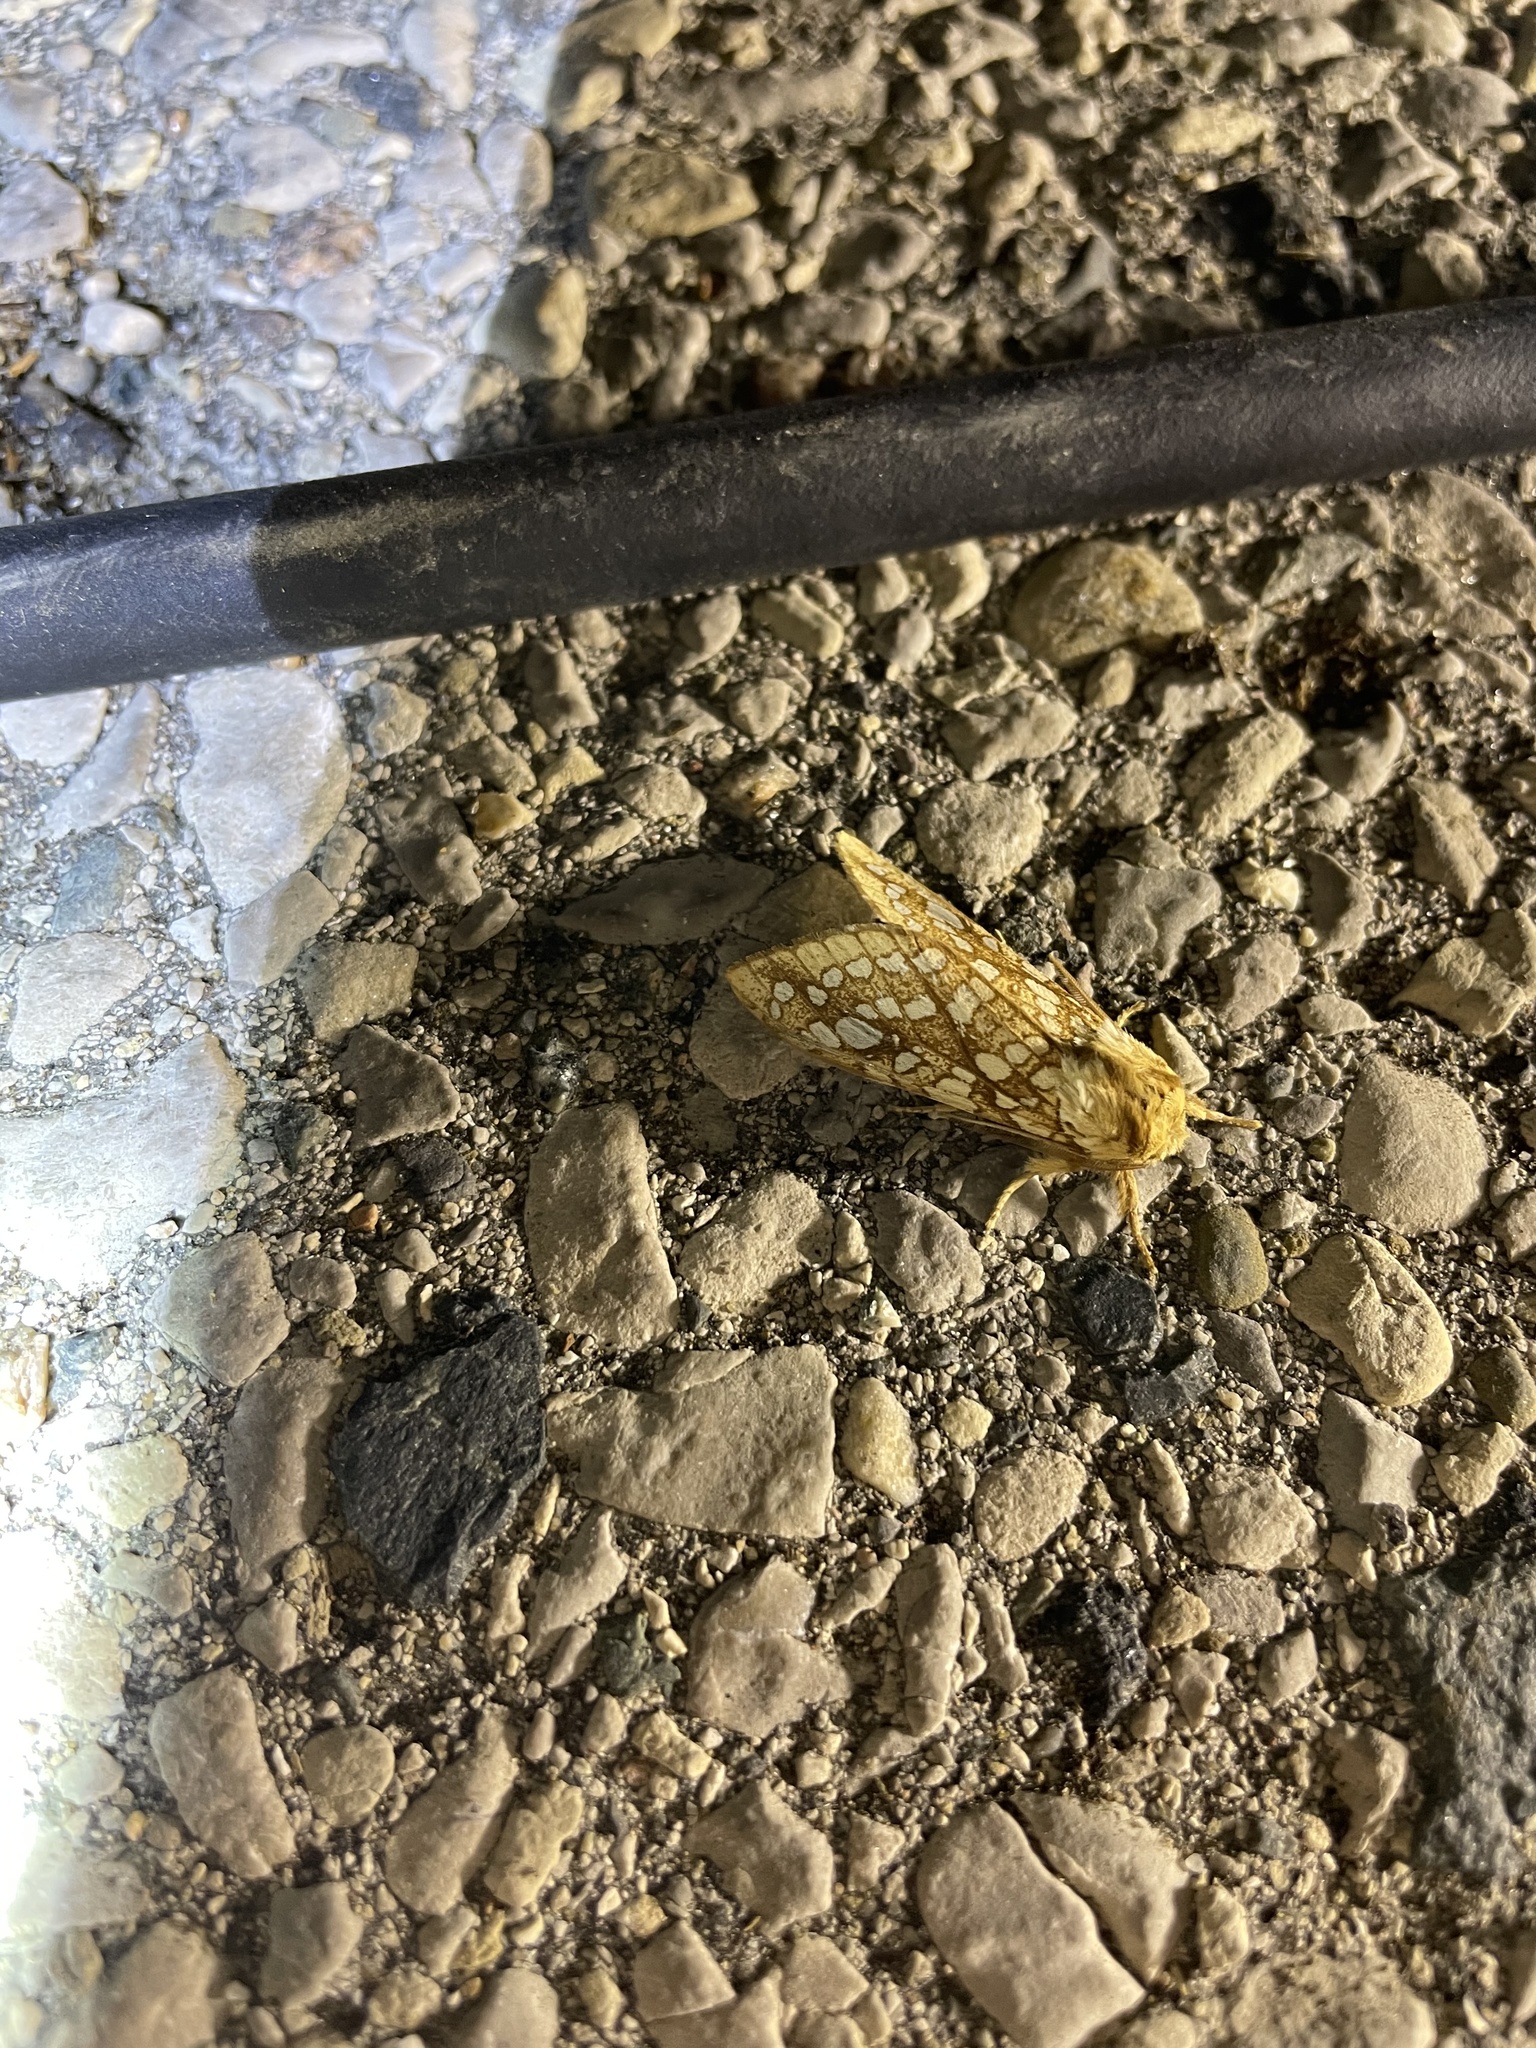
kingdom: Animalia
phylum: Arthropoda
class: Insecta
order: Lepidoptera
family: Erebidae
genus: Lophocampa
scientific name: Lophocampa caryae
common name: Hickory tussock moth
